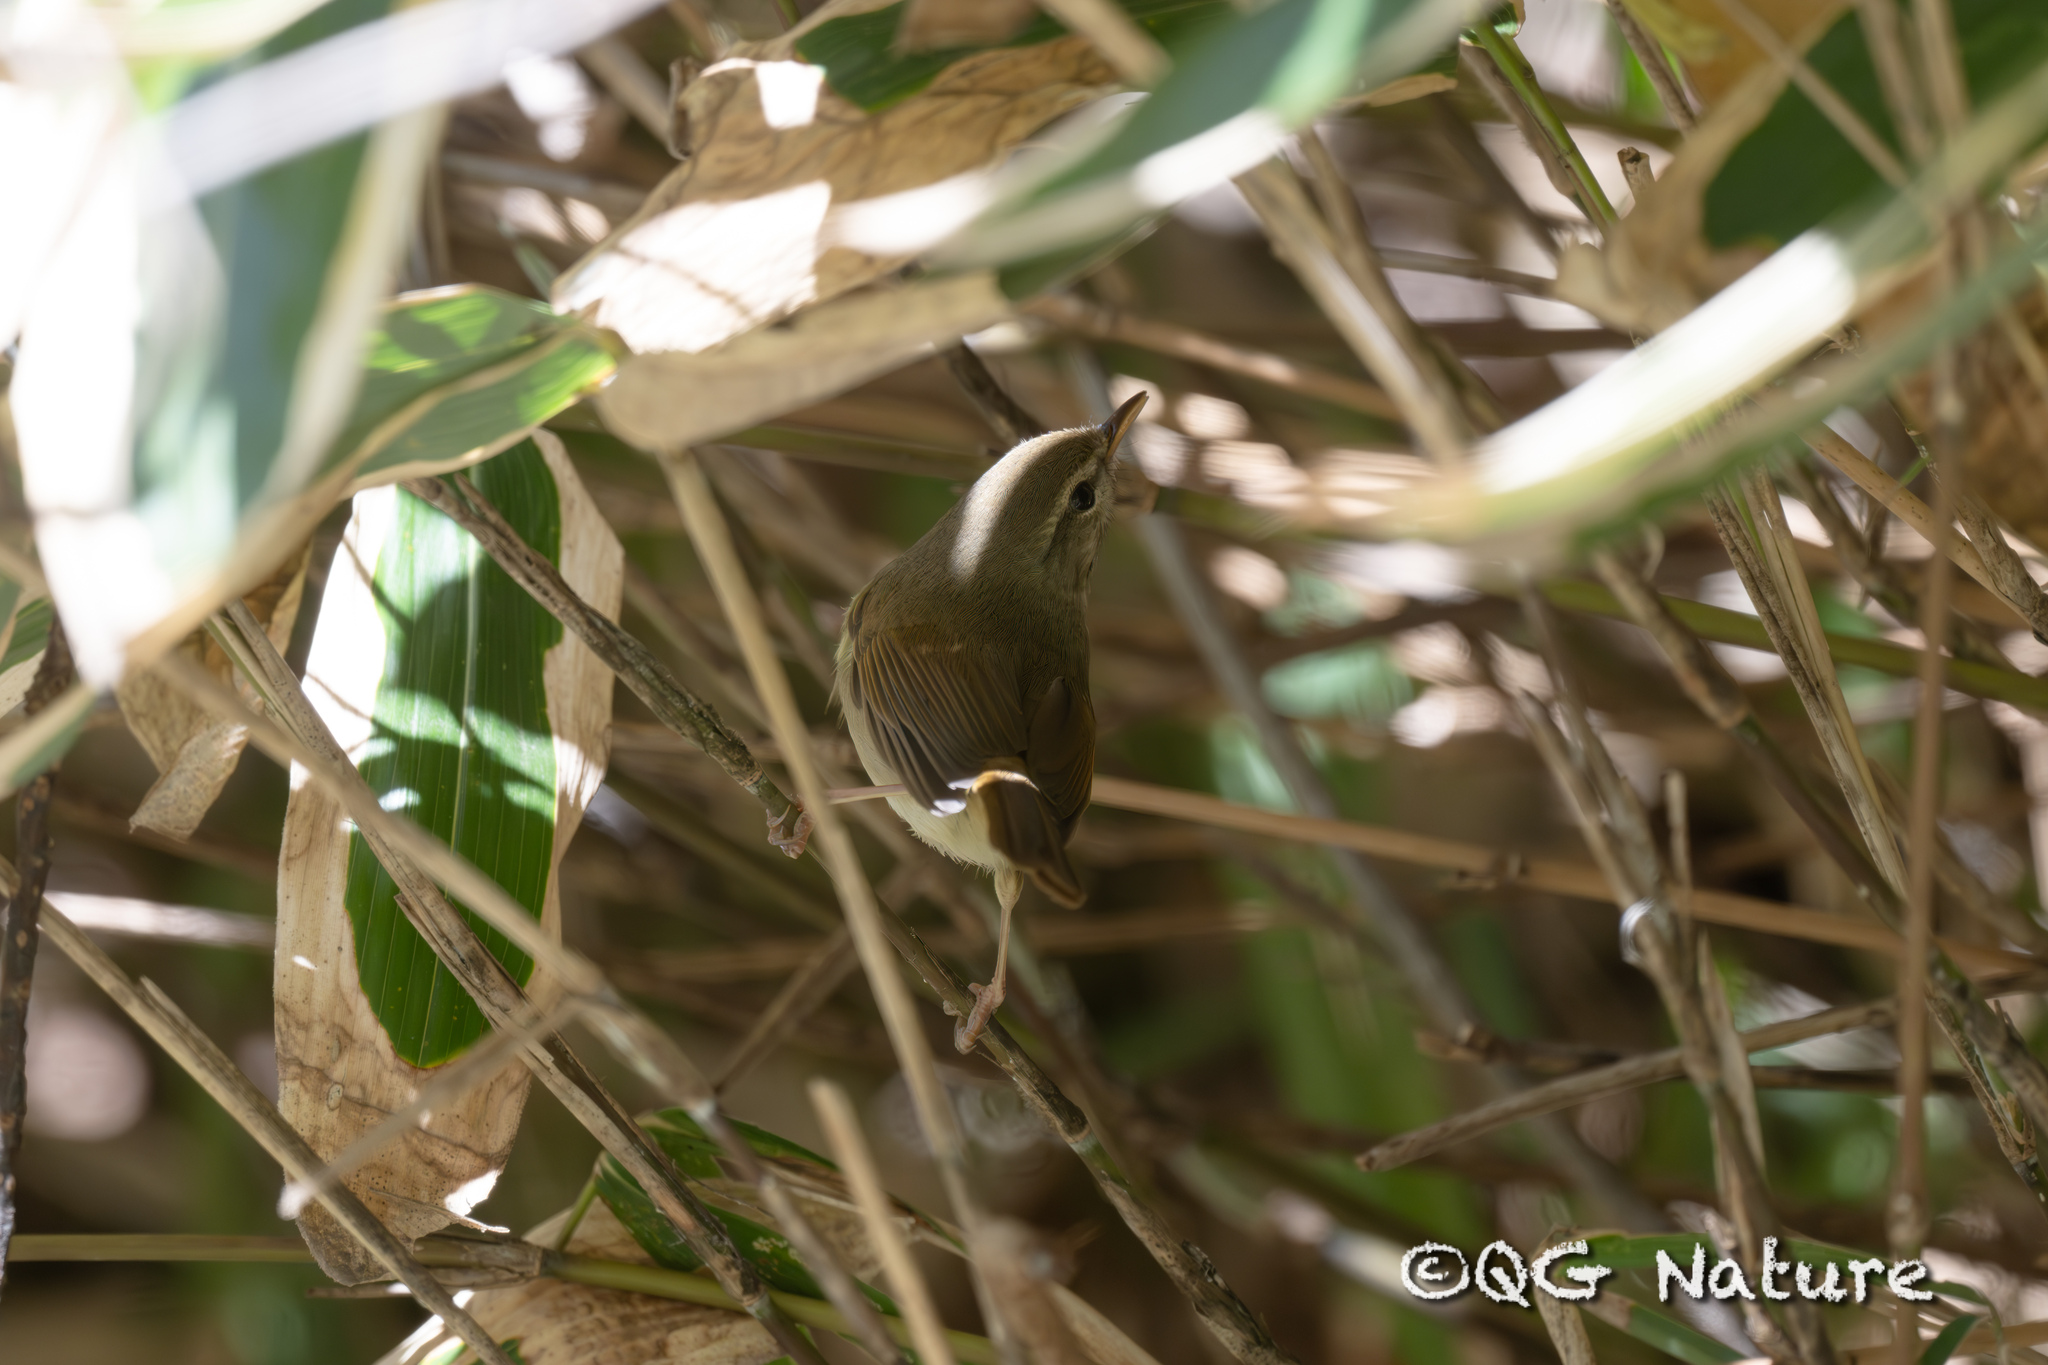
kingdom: Animalia
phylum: Chordata
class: Aves
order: Passeriformes
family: Cettiidae
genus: Horornis
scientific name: Horornis diphone
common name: Japanese bush warbler
